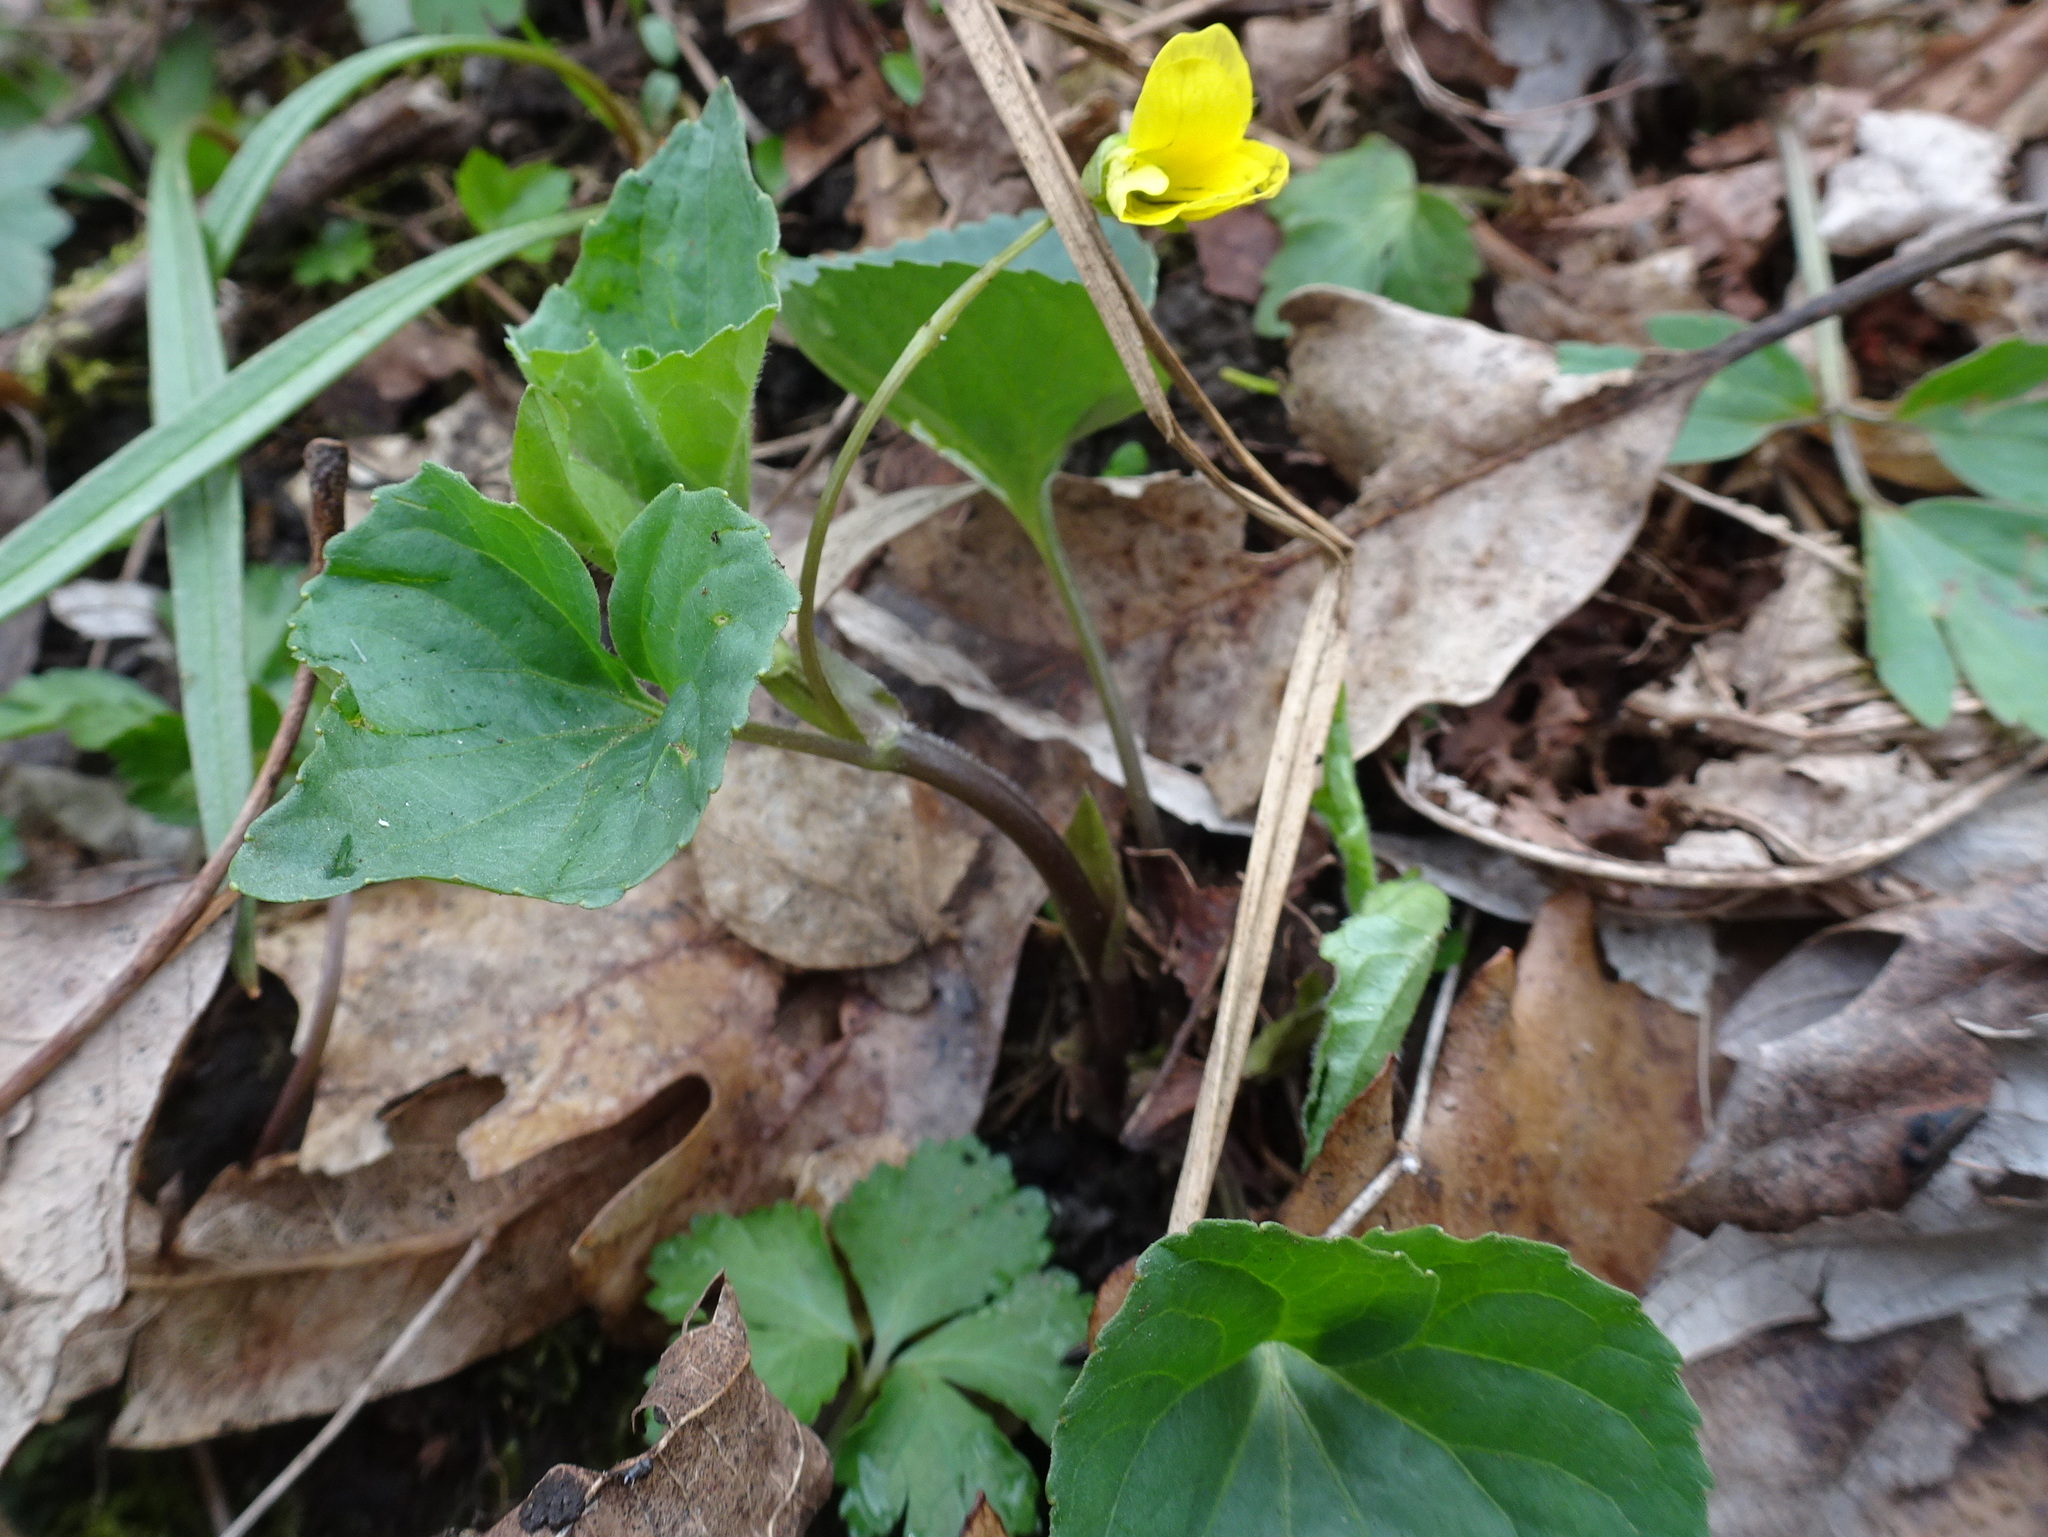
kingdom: Plantae
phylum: Tracheophyta
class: Magnoliopsida
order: Malpighiales
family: Violaceae
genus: Viola
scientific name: Viola eriocarpa
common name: Smooth yellow violet
